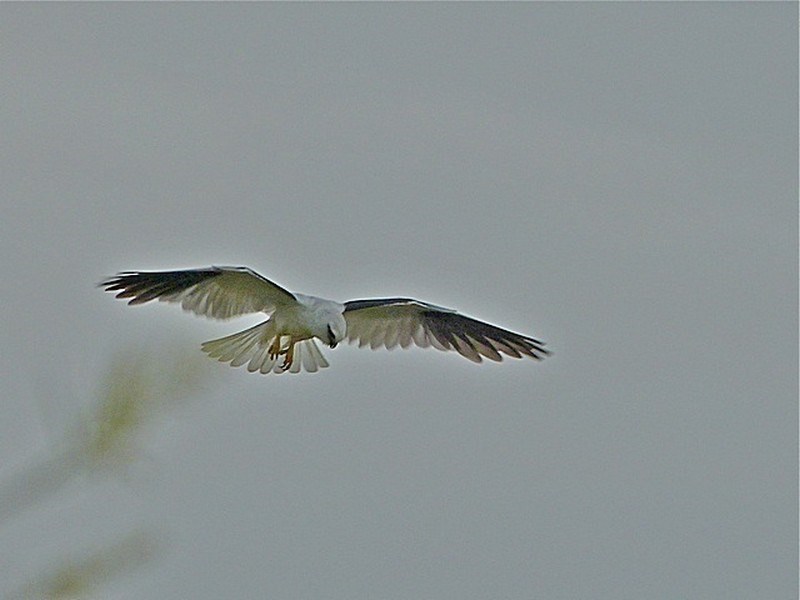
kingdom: Animalia
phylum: Chordata
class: Aves
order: Accipitriformes
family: Accipitridae
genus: Elanus
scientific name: Elanus axillaris
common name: Black-shouldered kite
